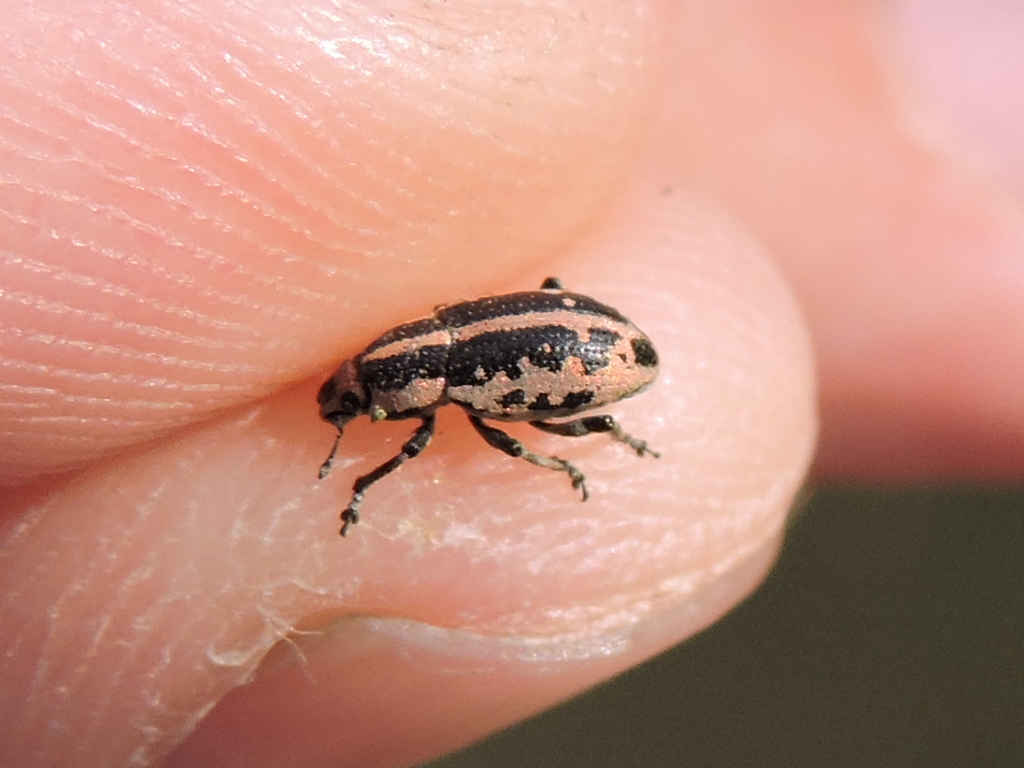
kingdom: Animalia
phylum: Arthropoda
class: Insecta
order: Coleoptera
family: Curculionidae
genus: Eudiagogus
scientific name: Eudiagogus rosenschoeldi
